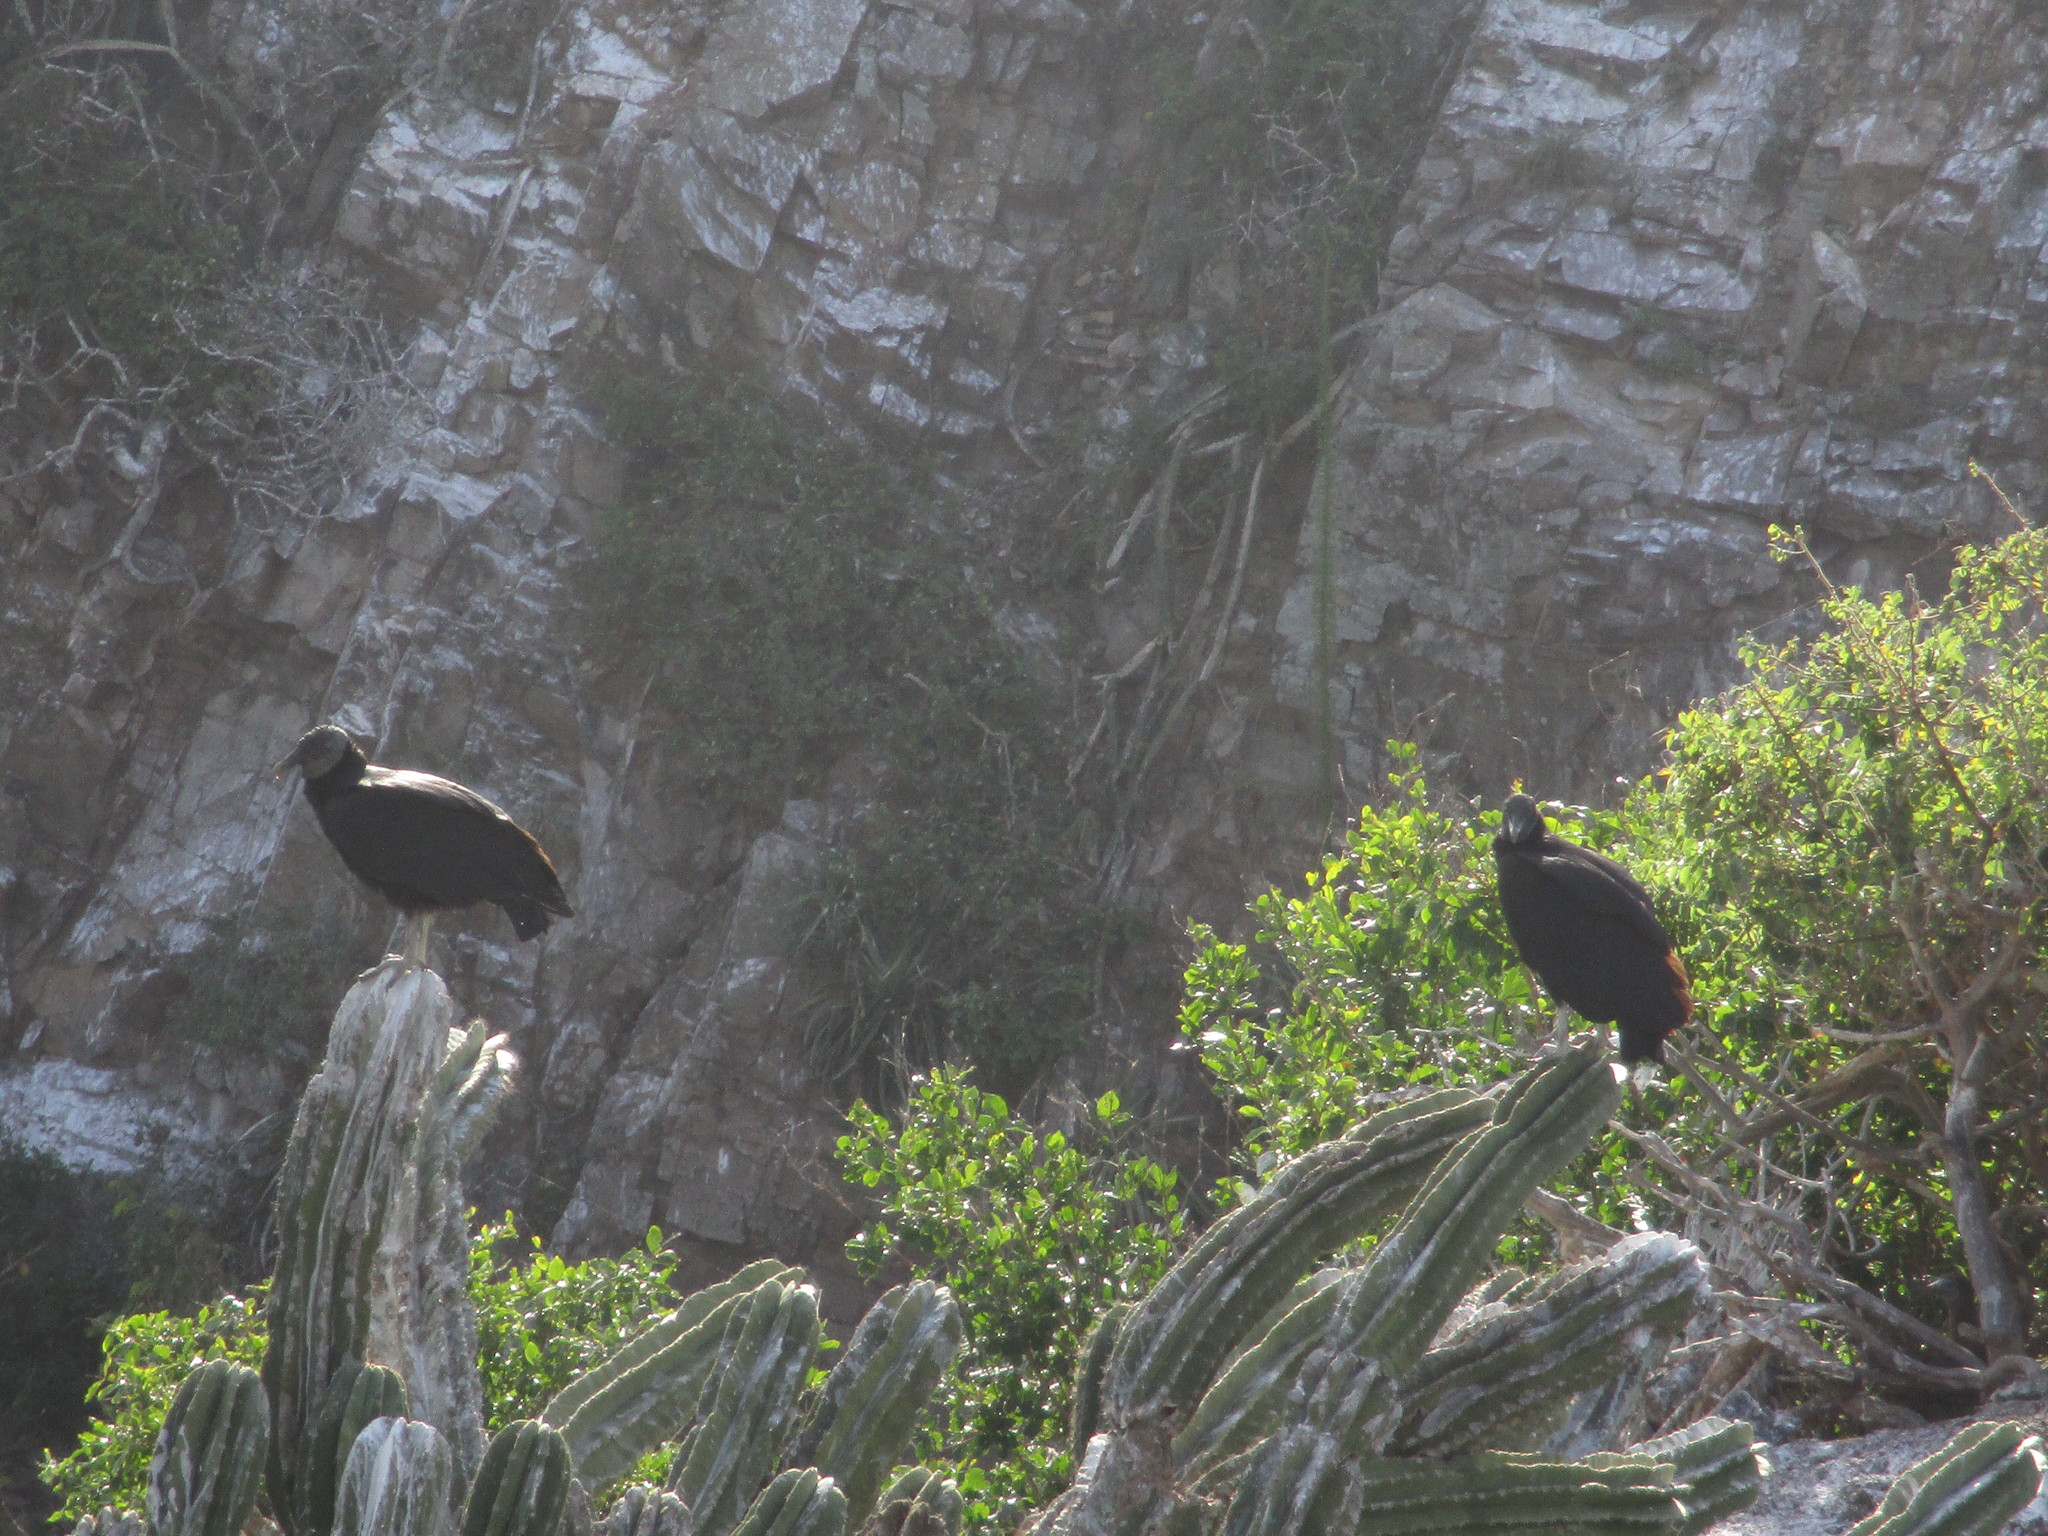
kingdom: Animalia
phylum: Chordata
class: Aves
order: Accipitriformes
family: Cathartidae
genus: Coragyps
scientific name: Coragyps atratus
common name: Black vulture
